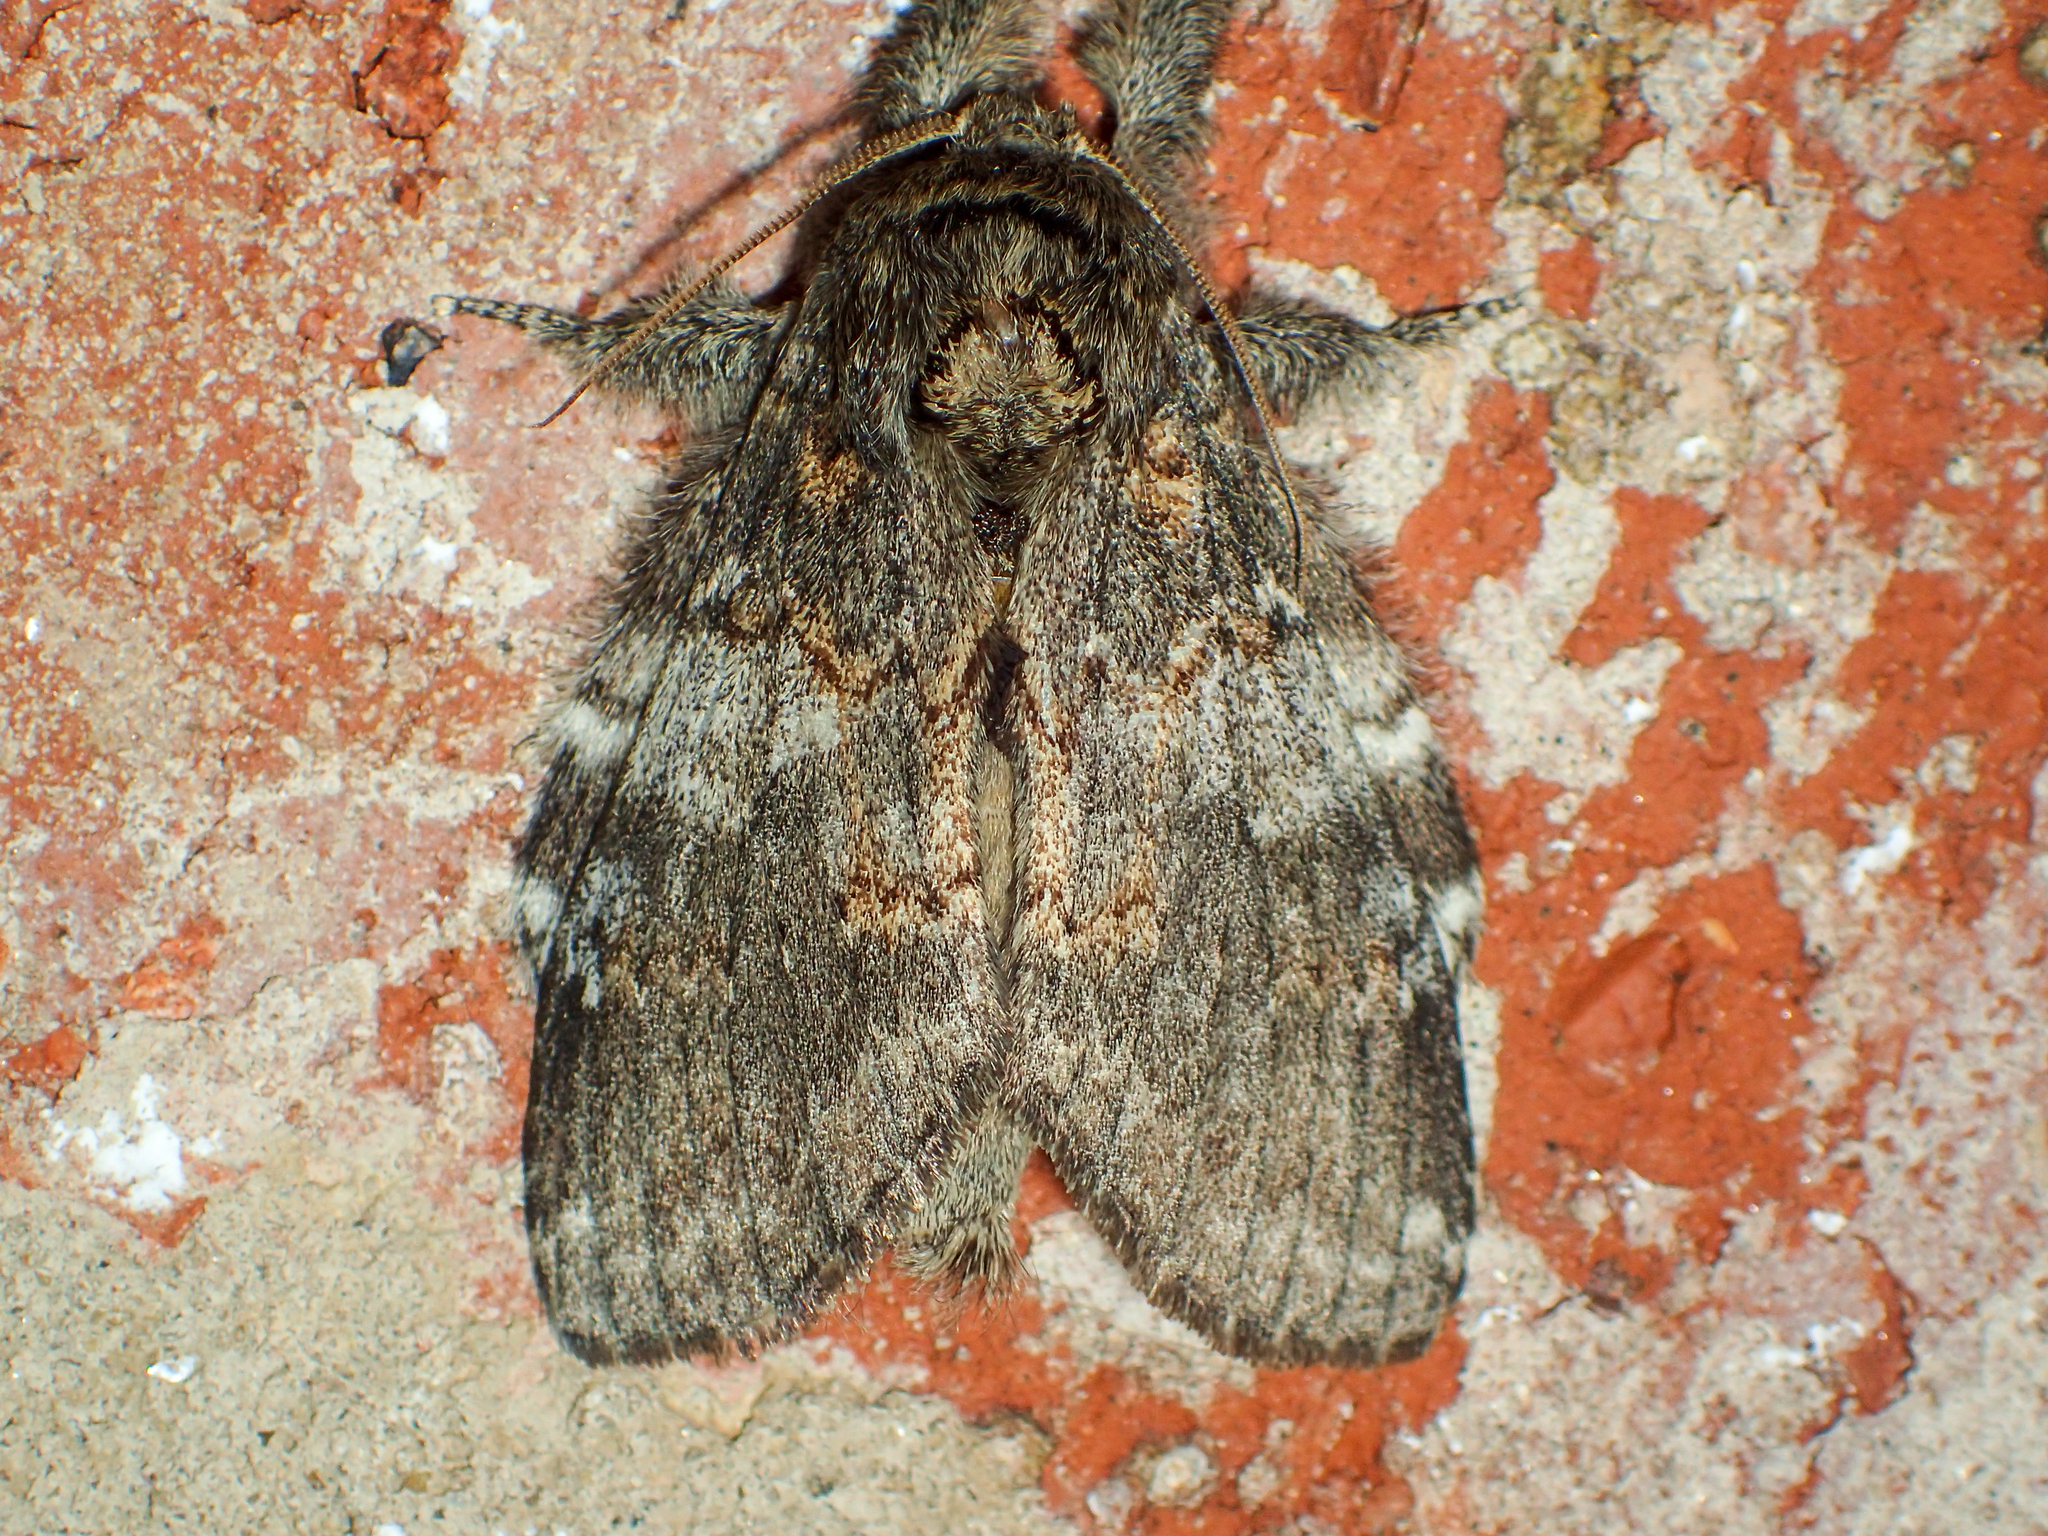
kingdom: Animalia
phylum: Arthropoda
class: Insecta
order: Lepidoptera
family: Notodontidae
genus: Peridea
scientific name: Peridea angulosa
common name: Angulose prominent
